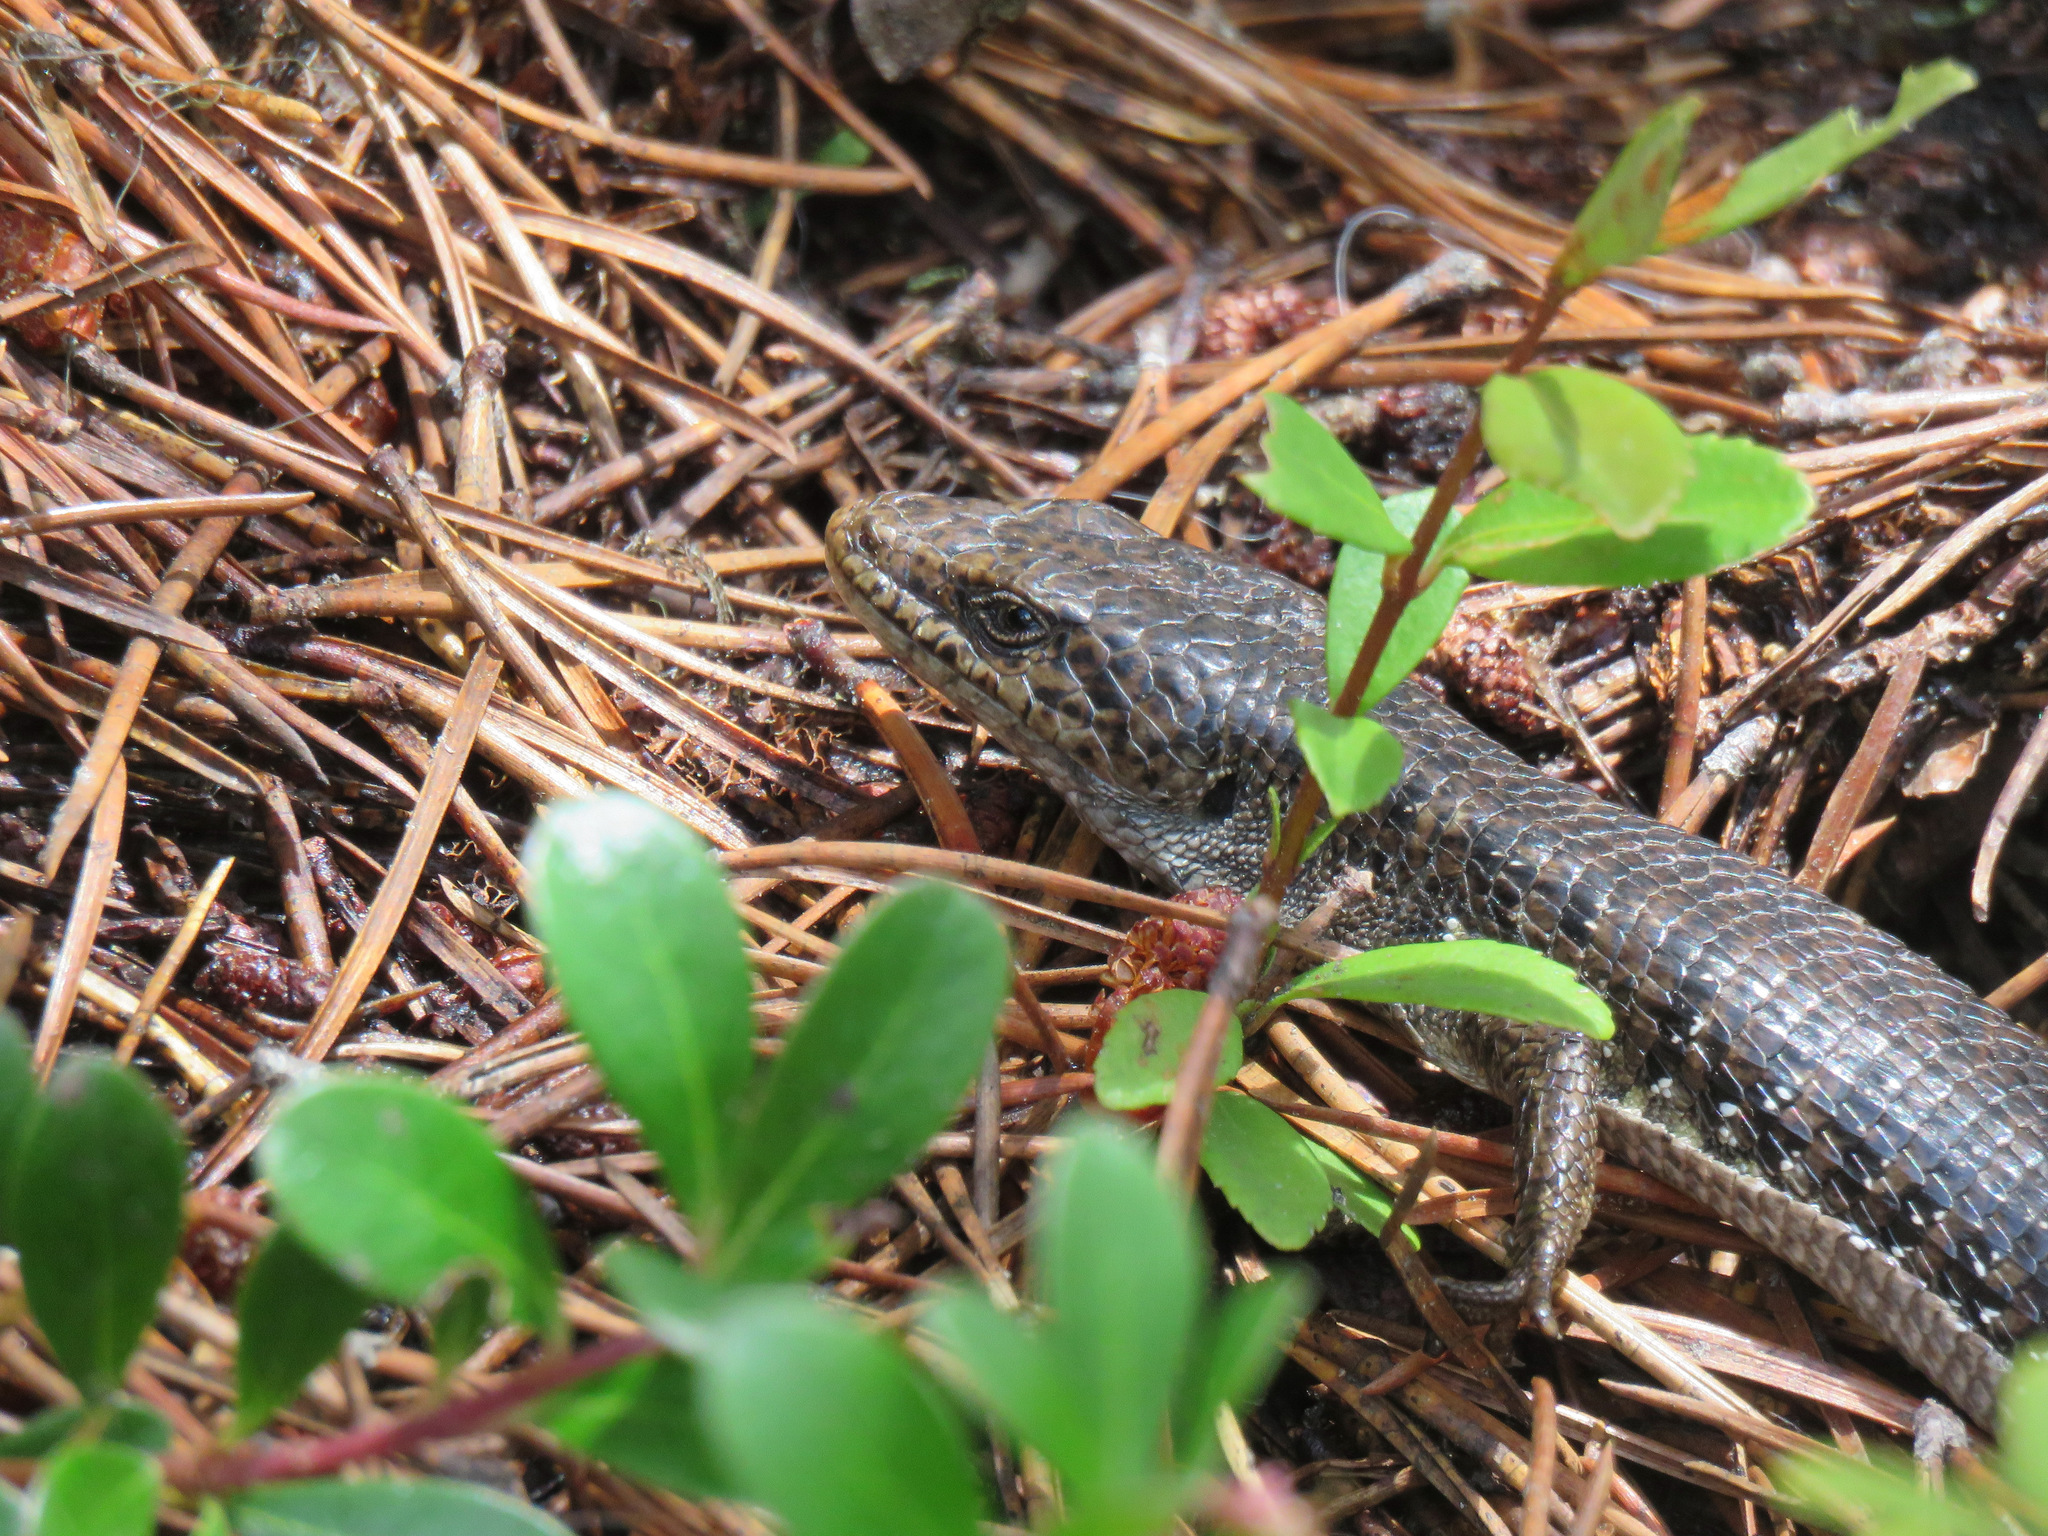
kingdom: Animalia
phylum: Chordata
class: Squamata
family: Anguidae
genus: Elgaria
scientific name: Elgaria coerulea
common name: Northern alligator lizard
